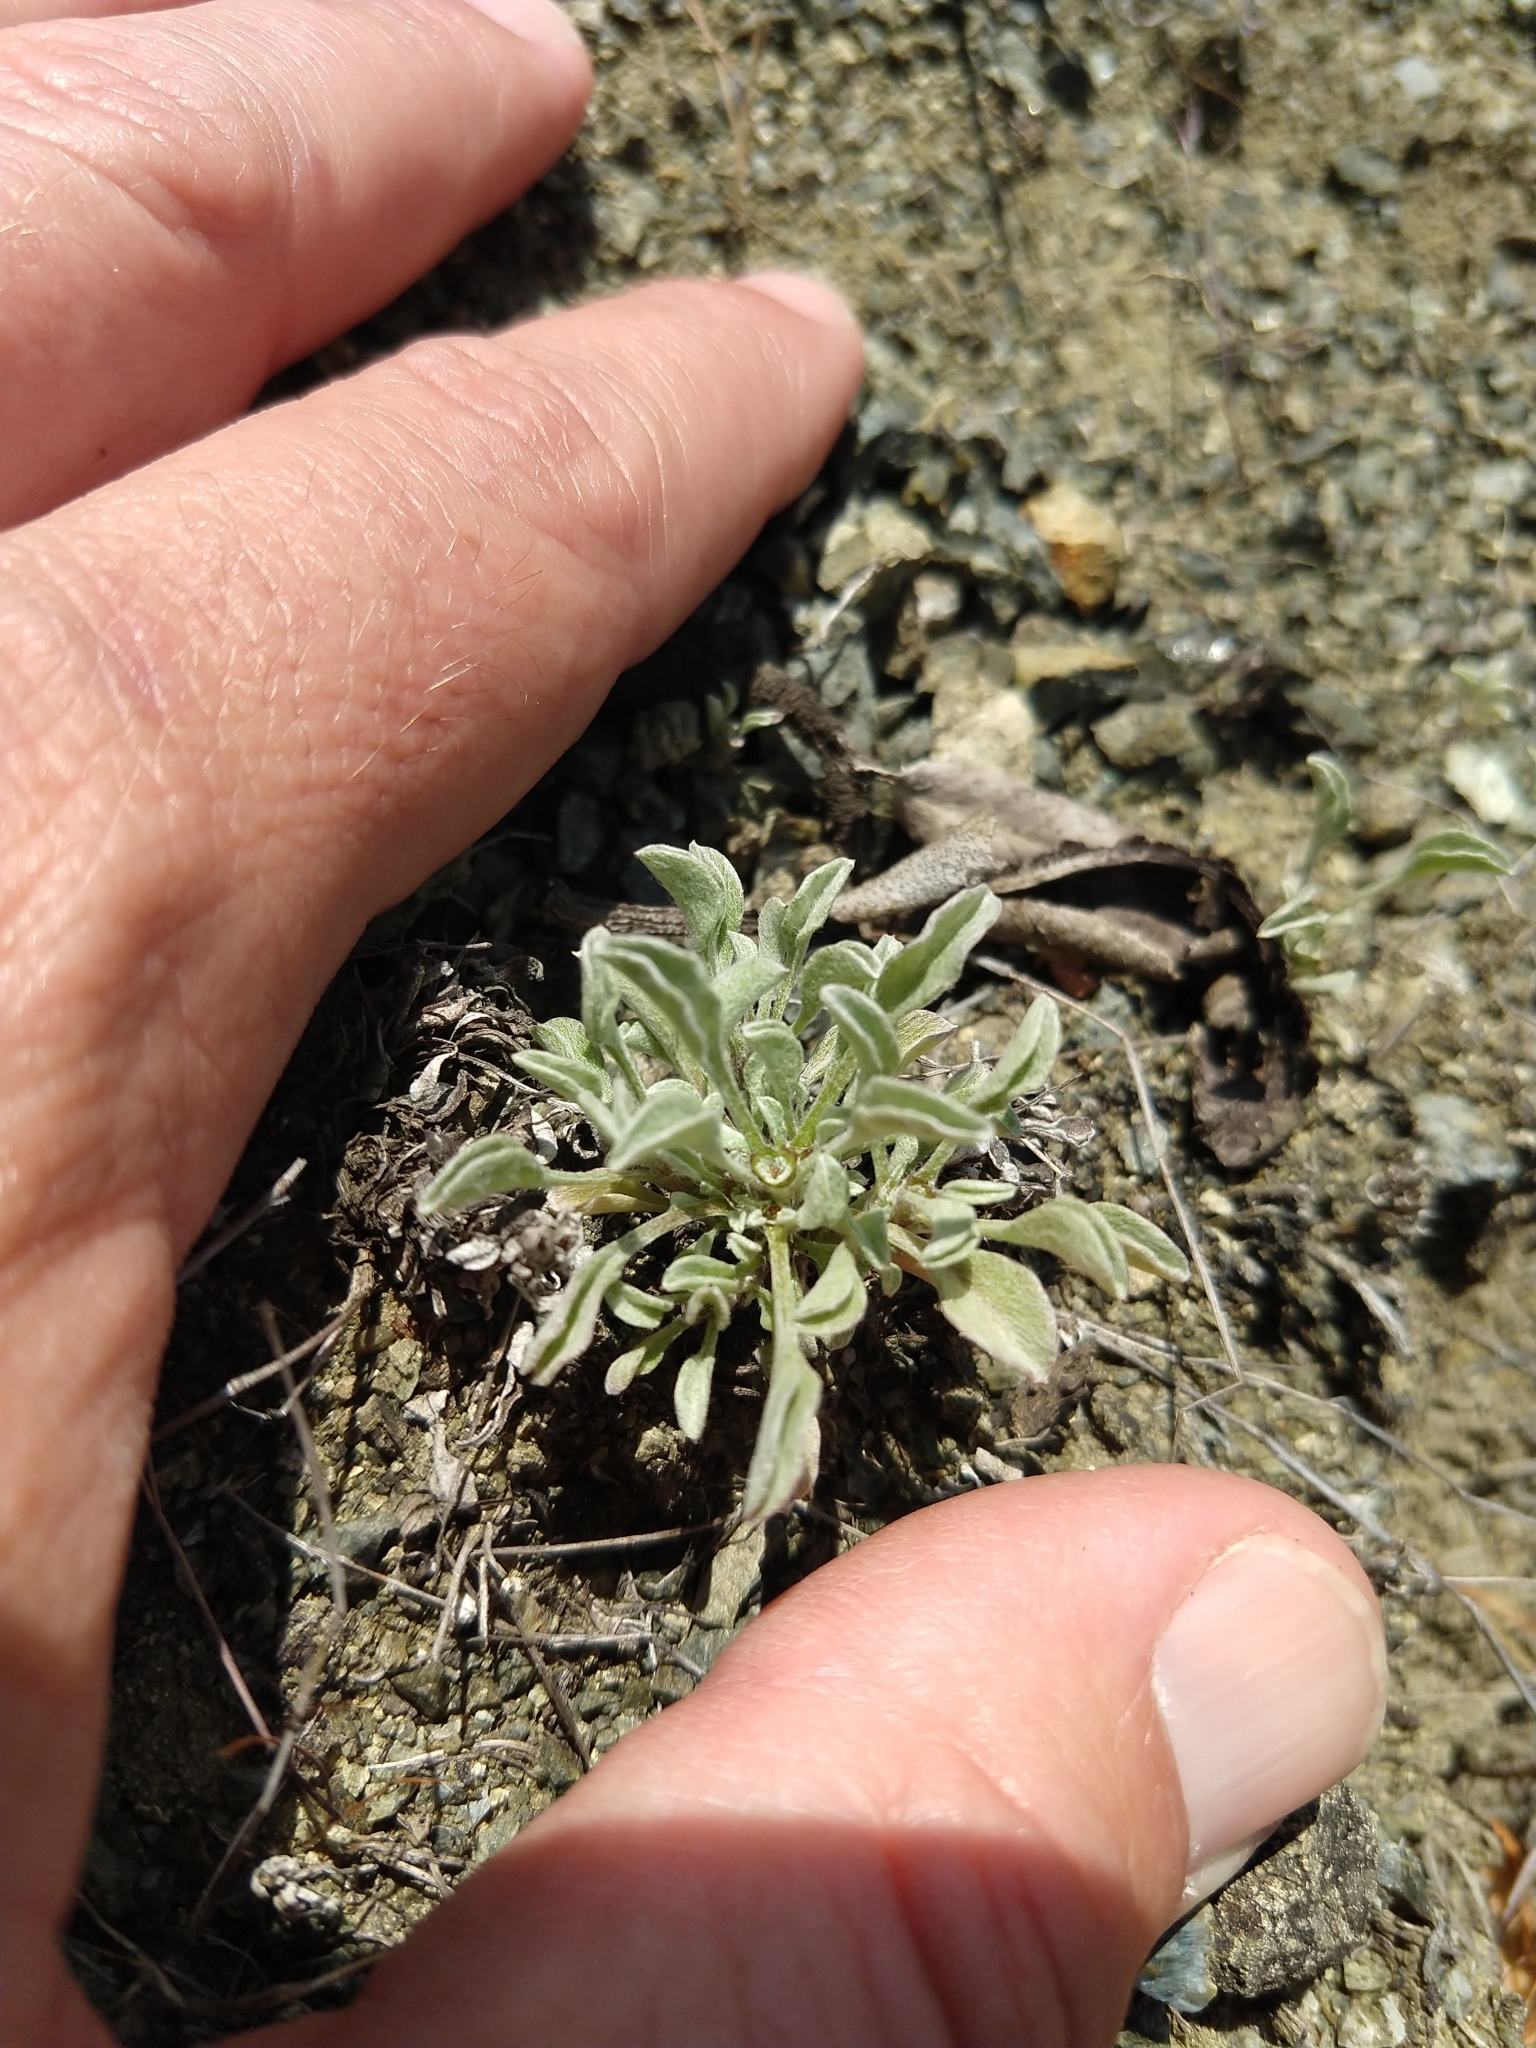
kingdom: Plantae
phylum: Tracheophyta
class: Magnoliopsida
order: Asterales
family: Asteraceae
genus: Hesperevax
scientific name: Hesperevax sparsiflora
